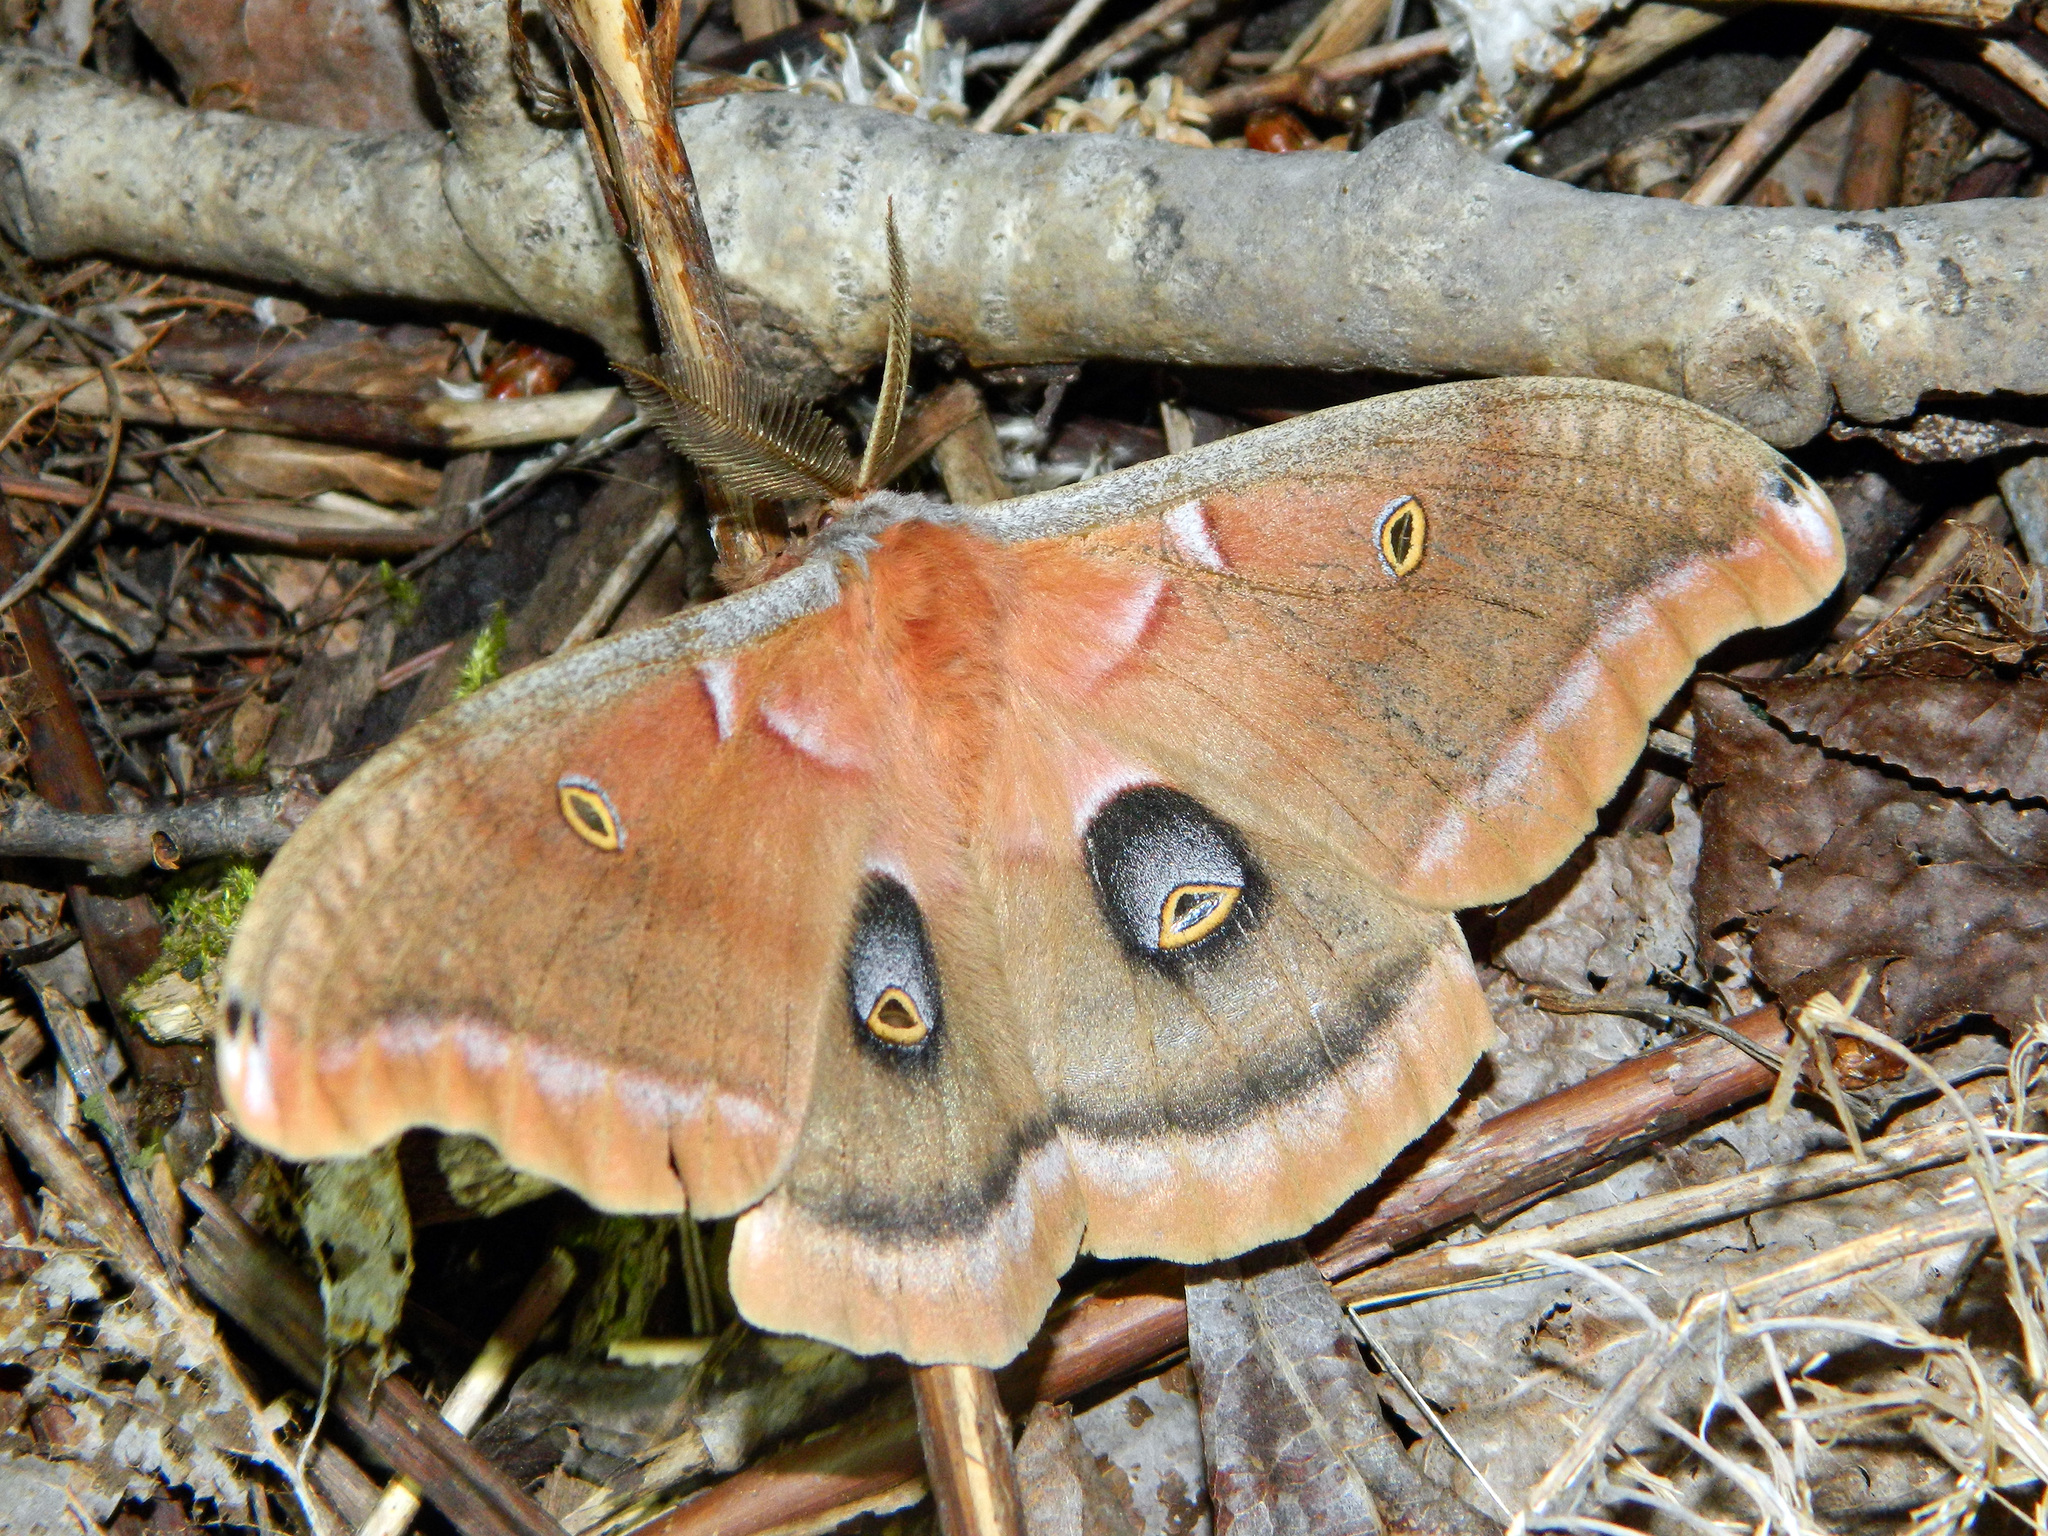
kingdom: Animalia
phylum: Arthropoda
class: Insecta
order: Lepidoptera
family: Saturniidae
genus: Antheraea
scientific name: Antheraea polyphemus
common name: Polyphemus moth
